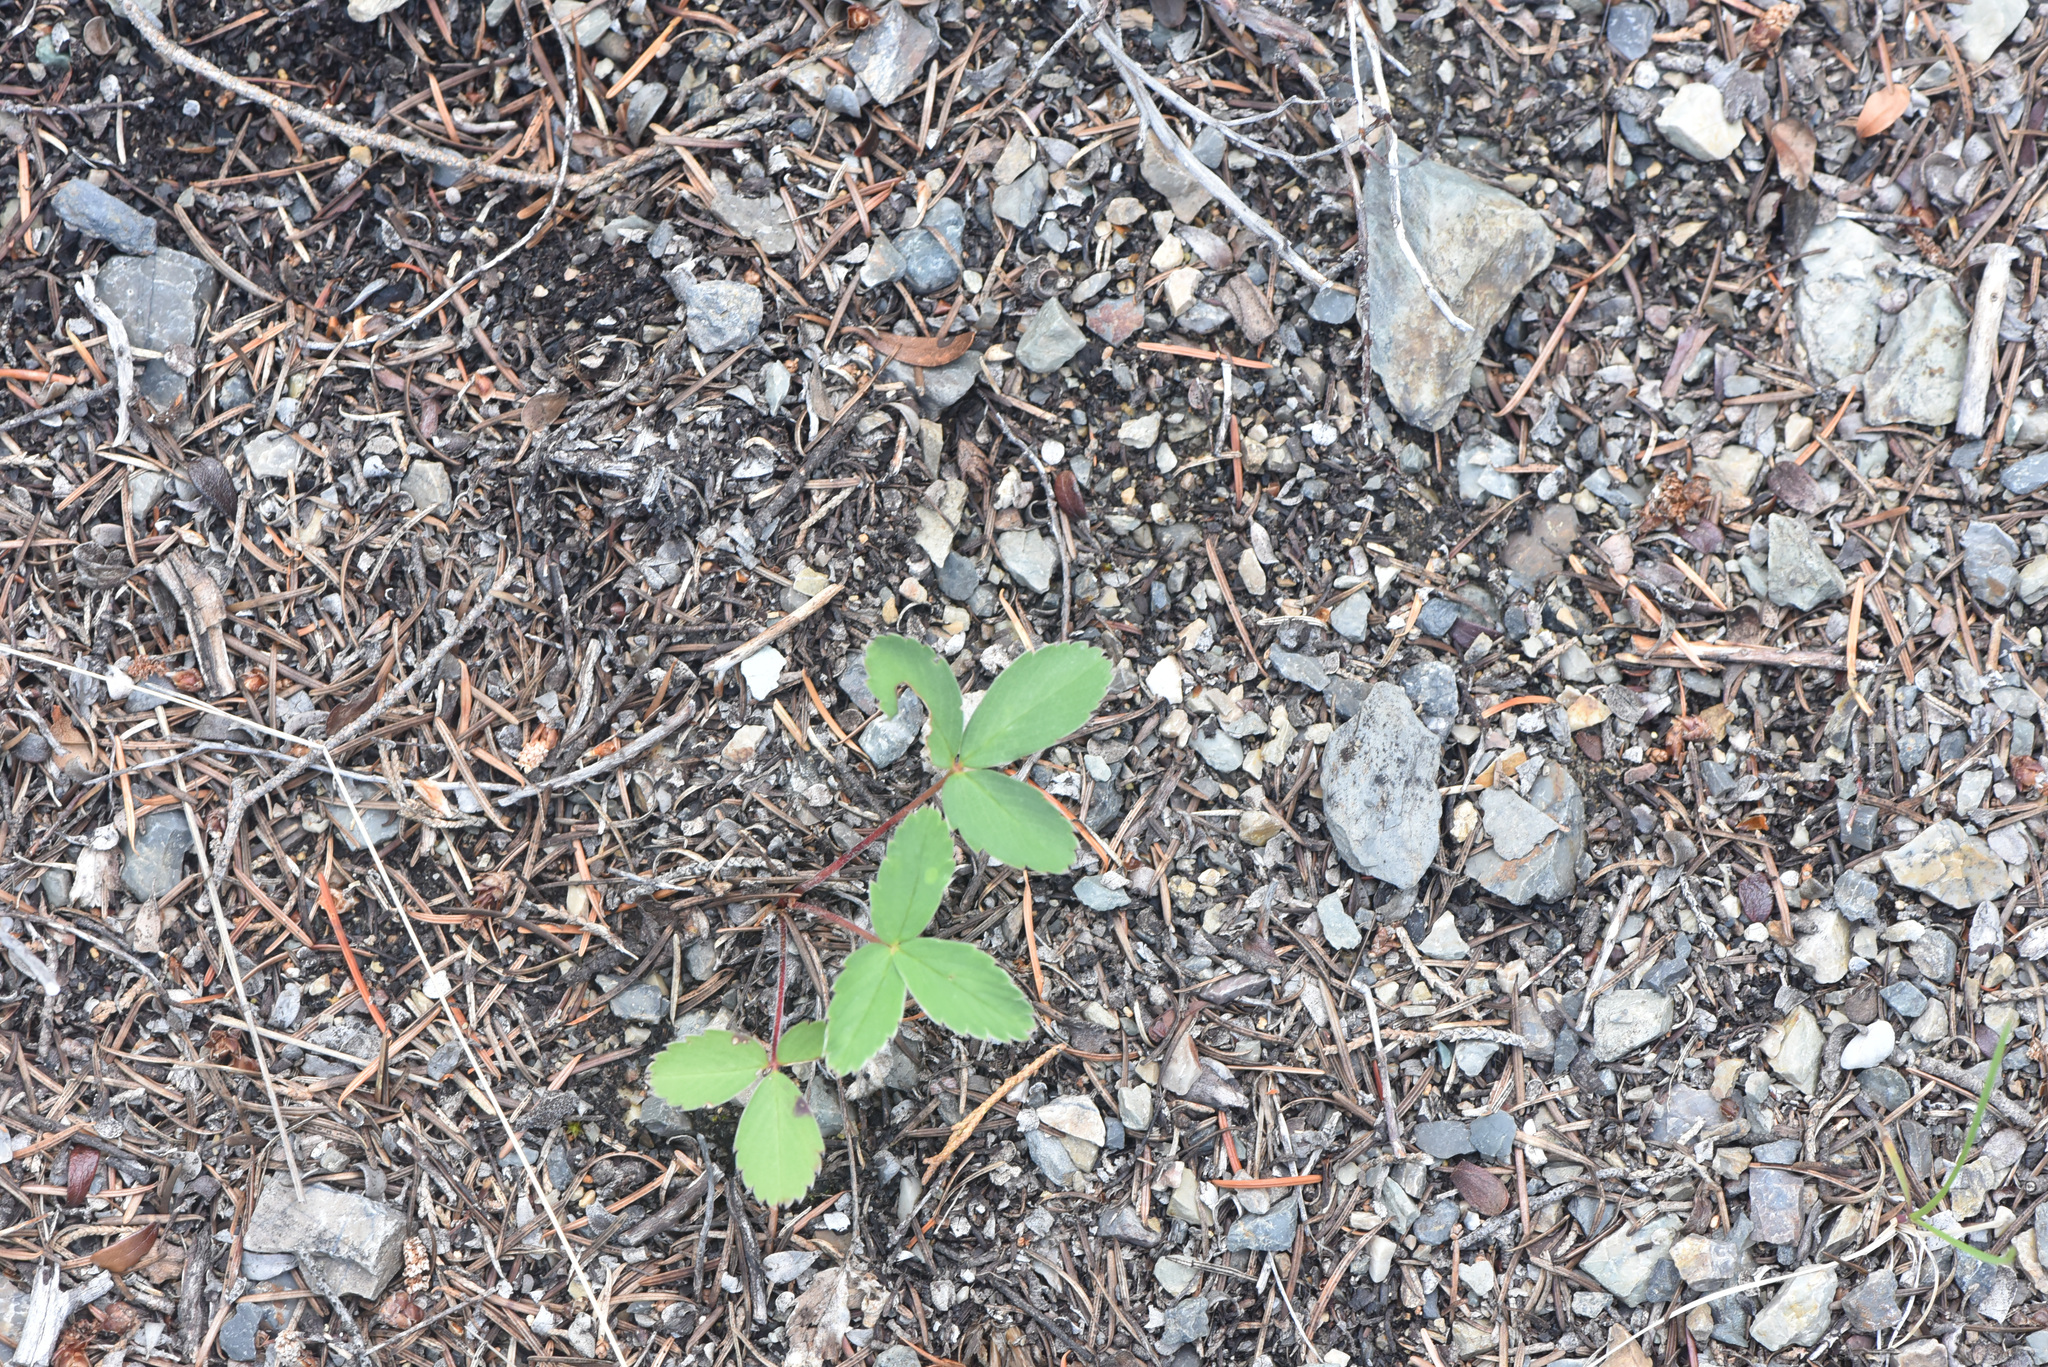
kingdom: Plantae
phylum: Tracheophyta
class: Magnoliopsida
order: Rosales
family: Rosaceae
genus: Fragaria
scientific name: Fragaria virginiana
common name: Thickleaved wild strawberry
